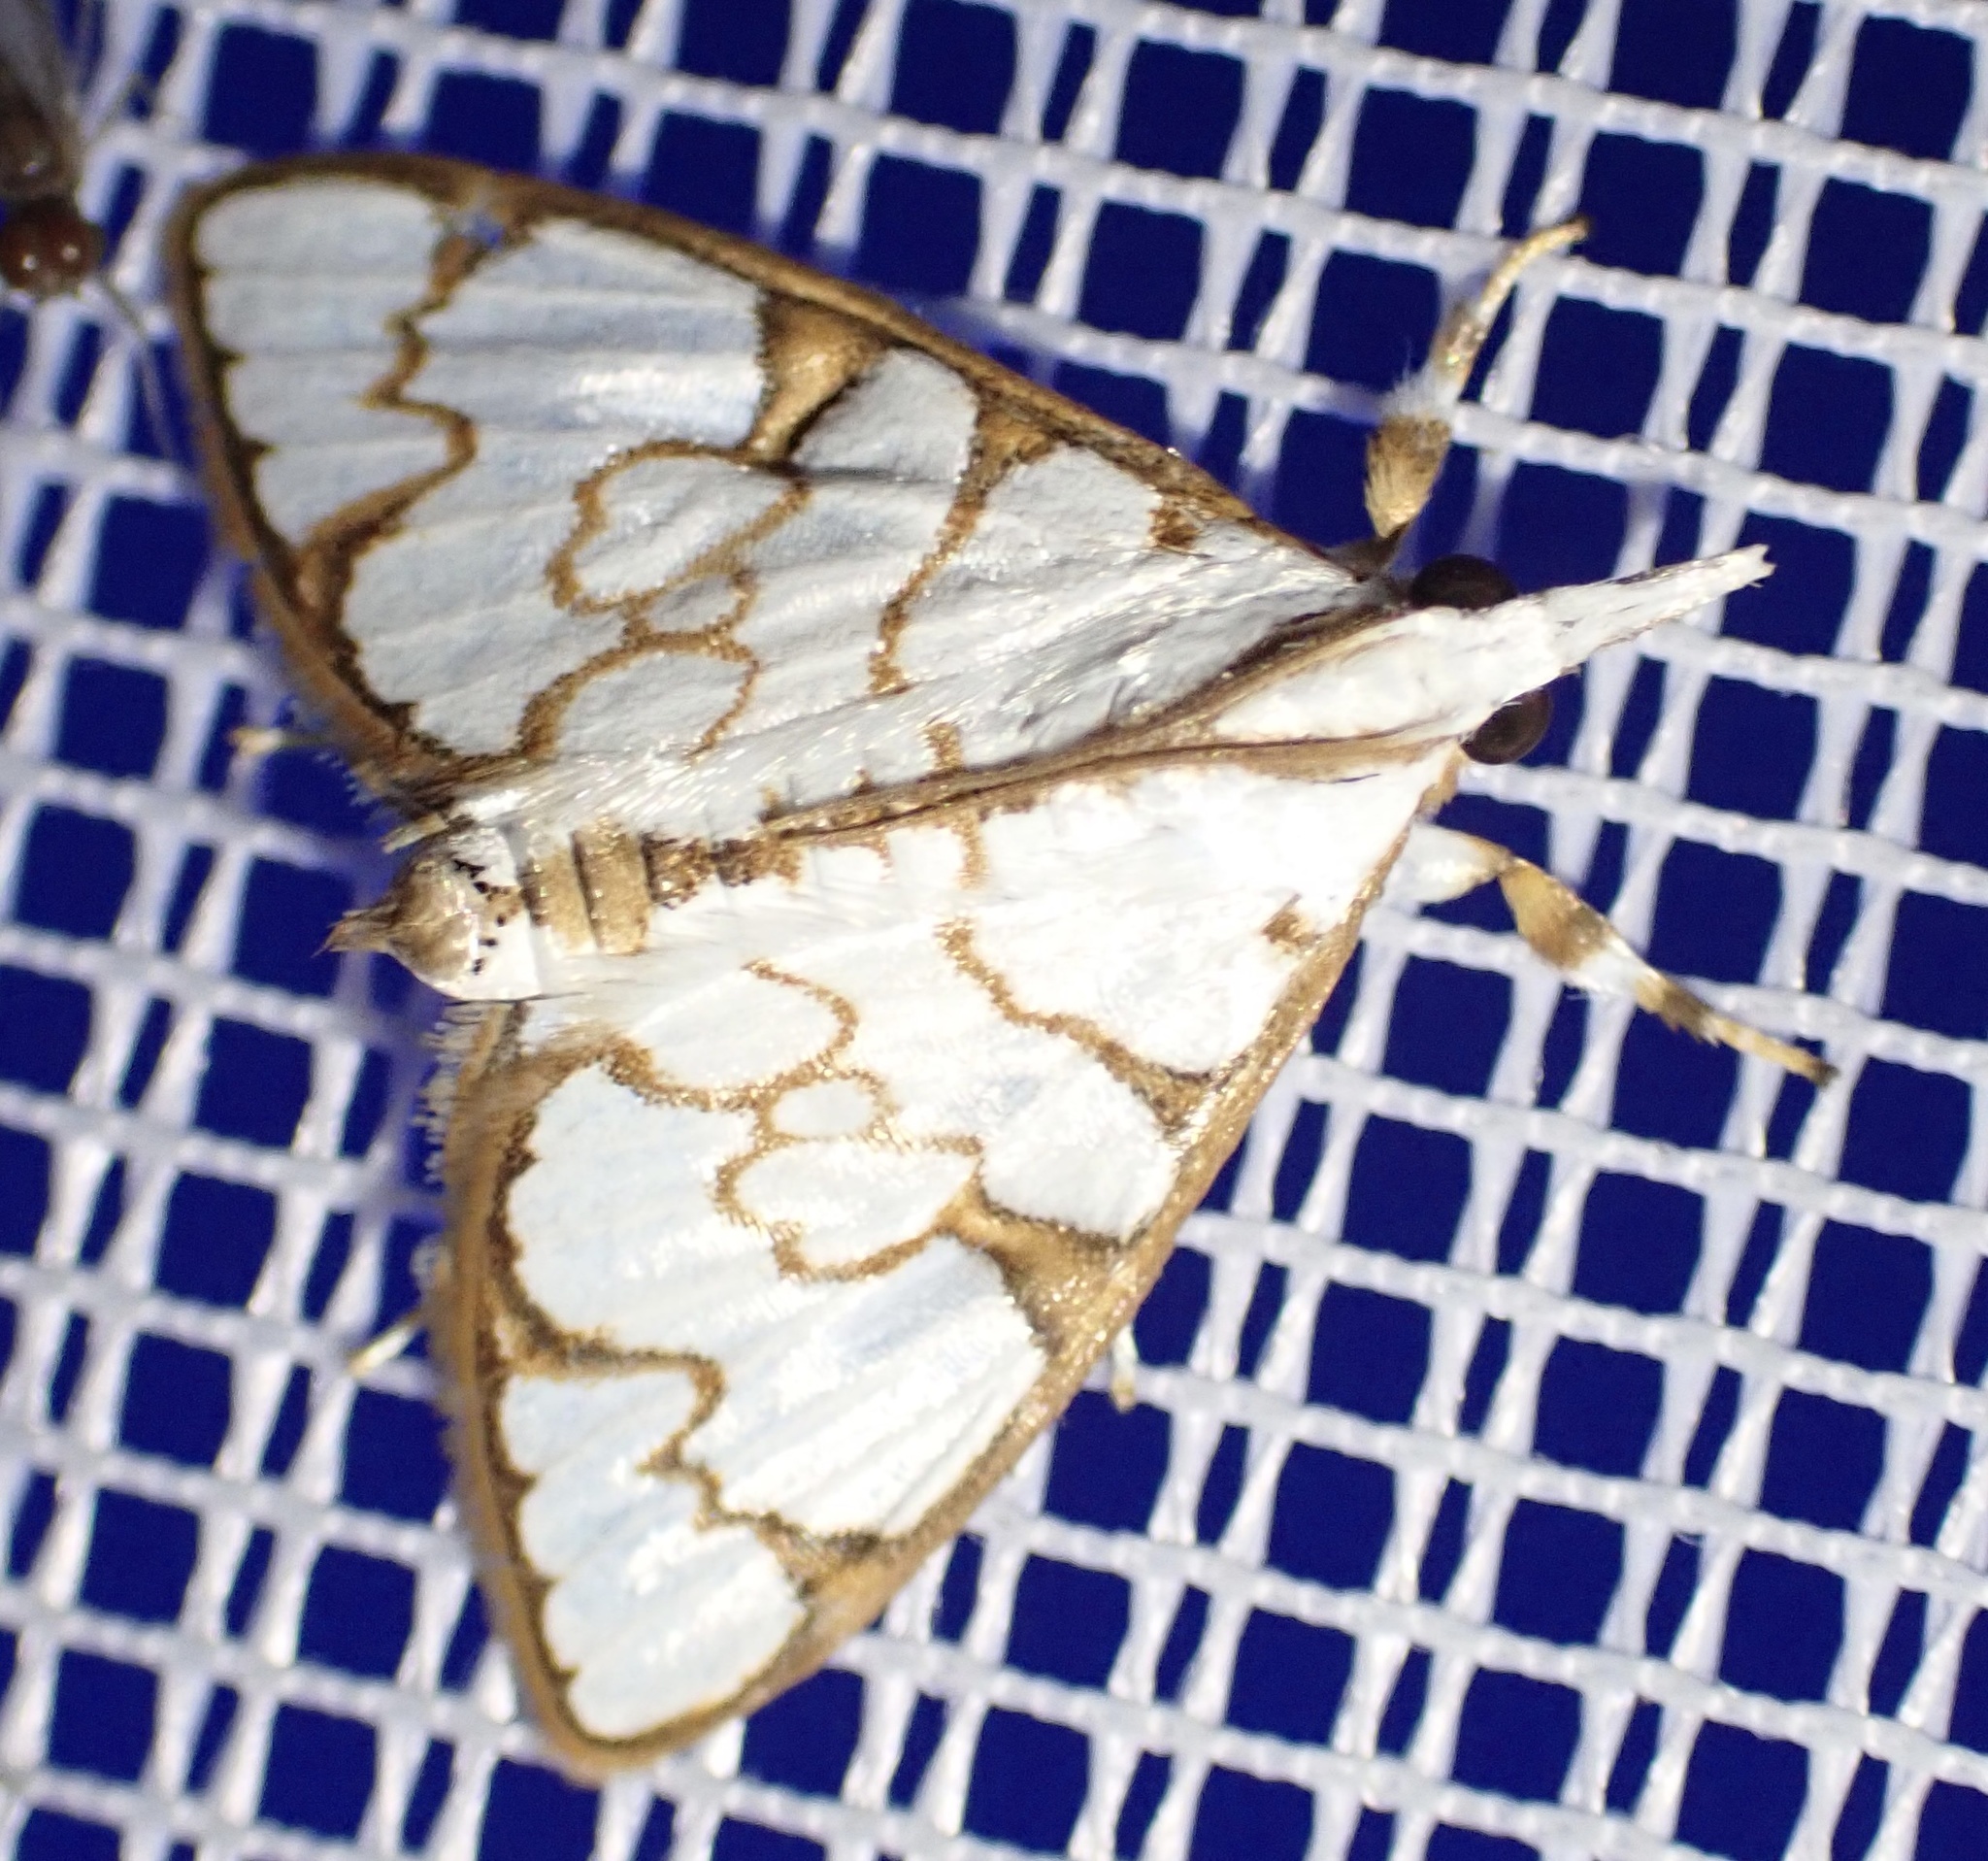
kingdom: Animalia
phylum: Arthropoda
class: Insecta
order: Lepidoptera
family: Crambidae
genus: Cirrhochrista
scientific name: Cirrhochrista grabczewskyi
